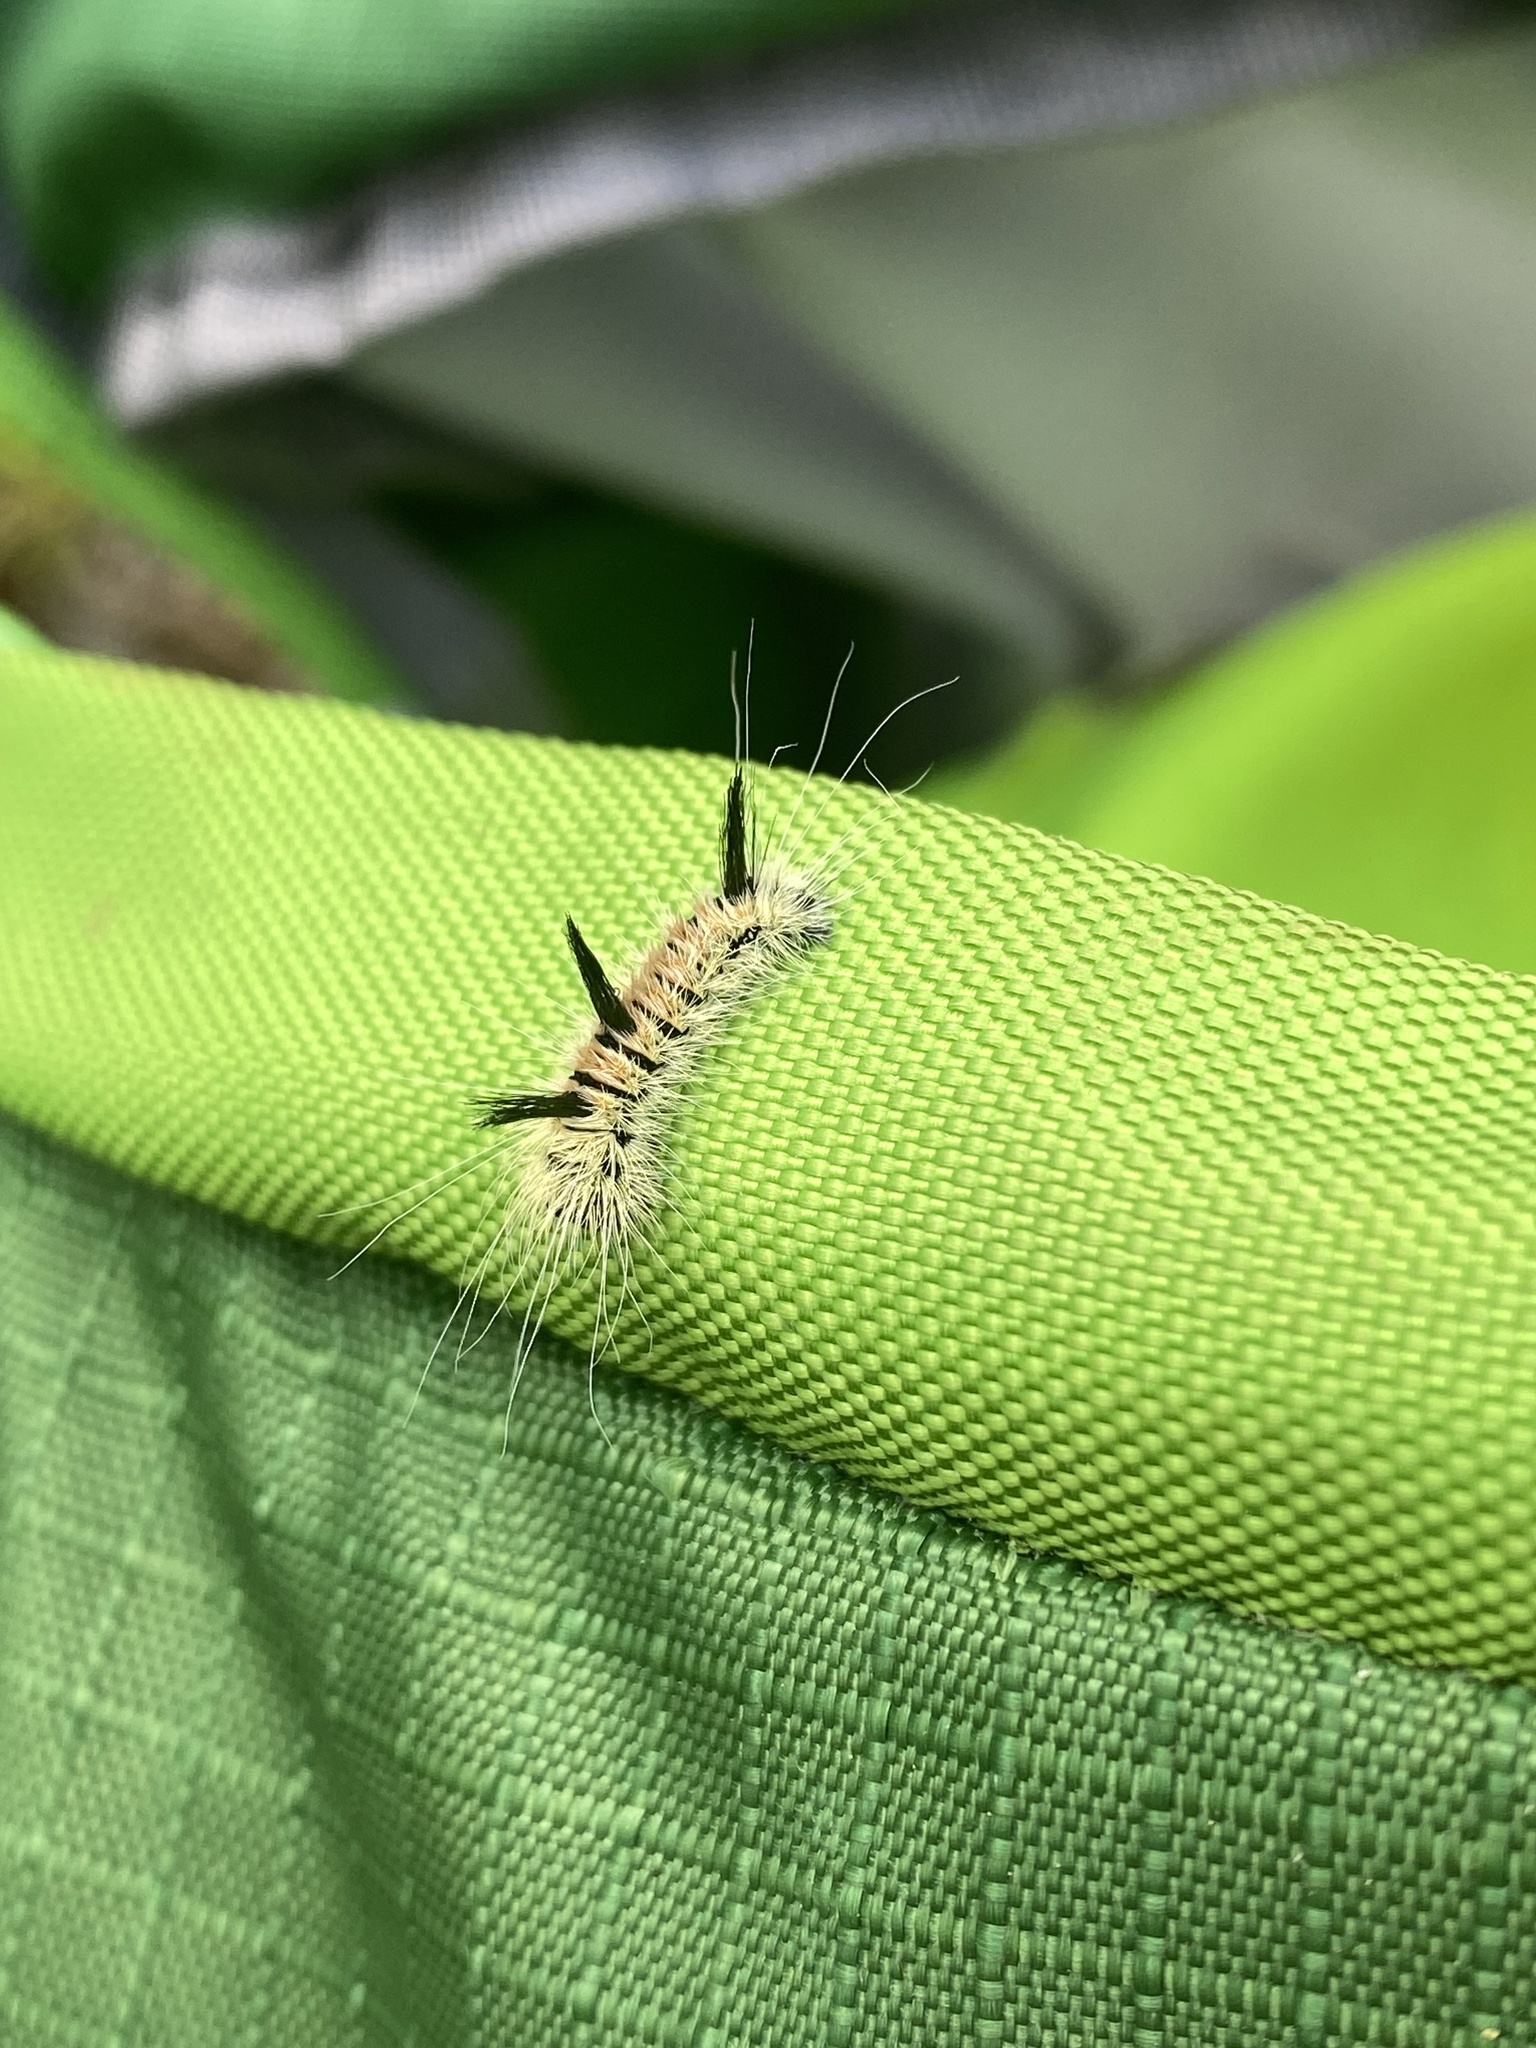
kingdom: Animalia
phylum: Arthropoda
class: Insecta
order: Lepidoptera
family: Noctuidae
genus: Acronicta
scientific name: Acronicta insita
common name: Large gray dagger
